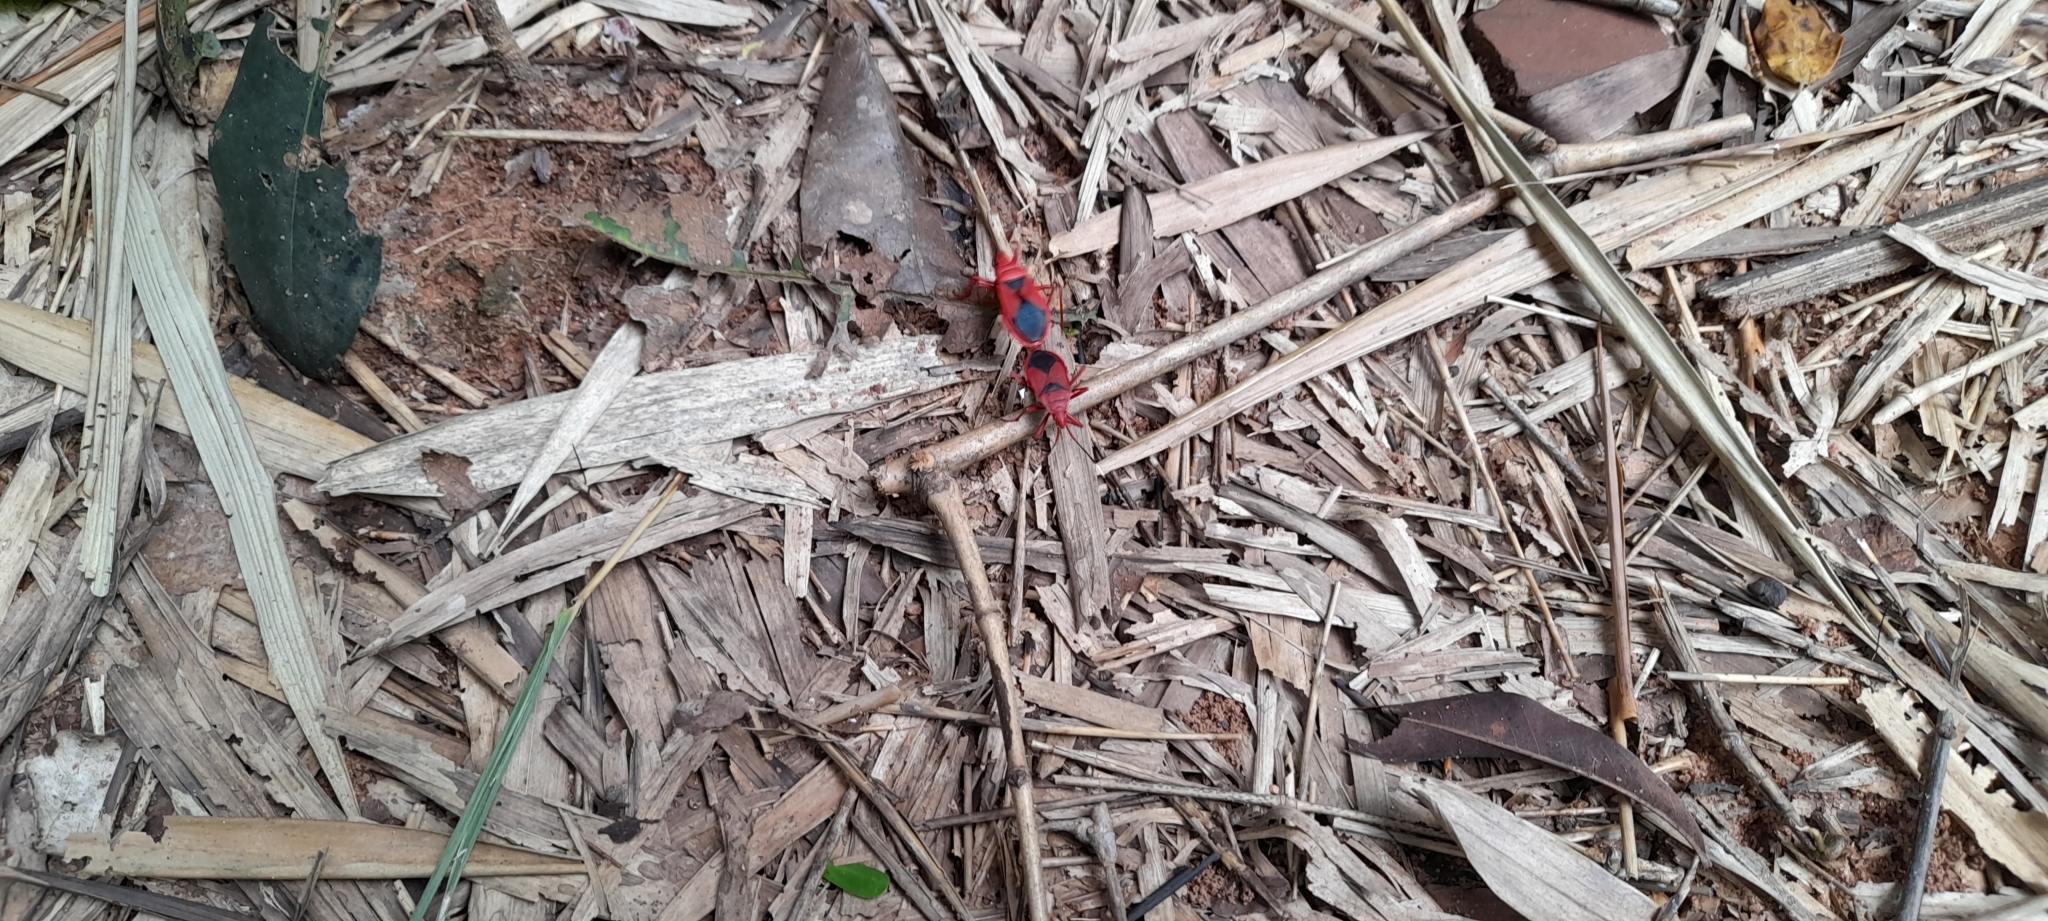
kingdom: Animalia
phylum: Arthropoda
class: Insecta
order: Hemiptera
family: Pyrrhocoridae
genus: Probergrothius
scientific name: Probergrothius
